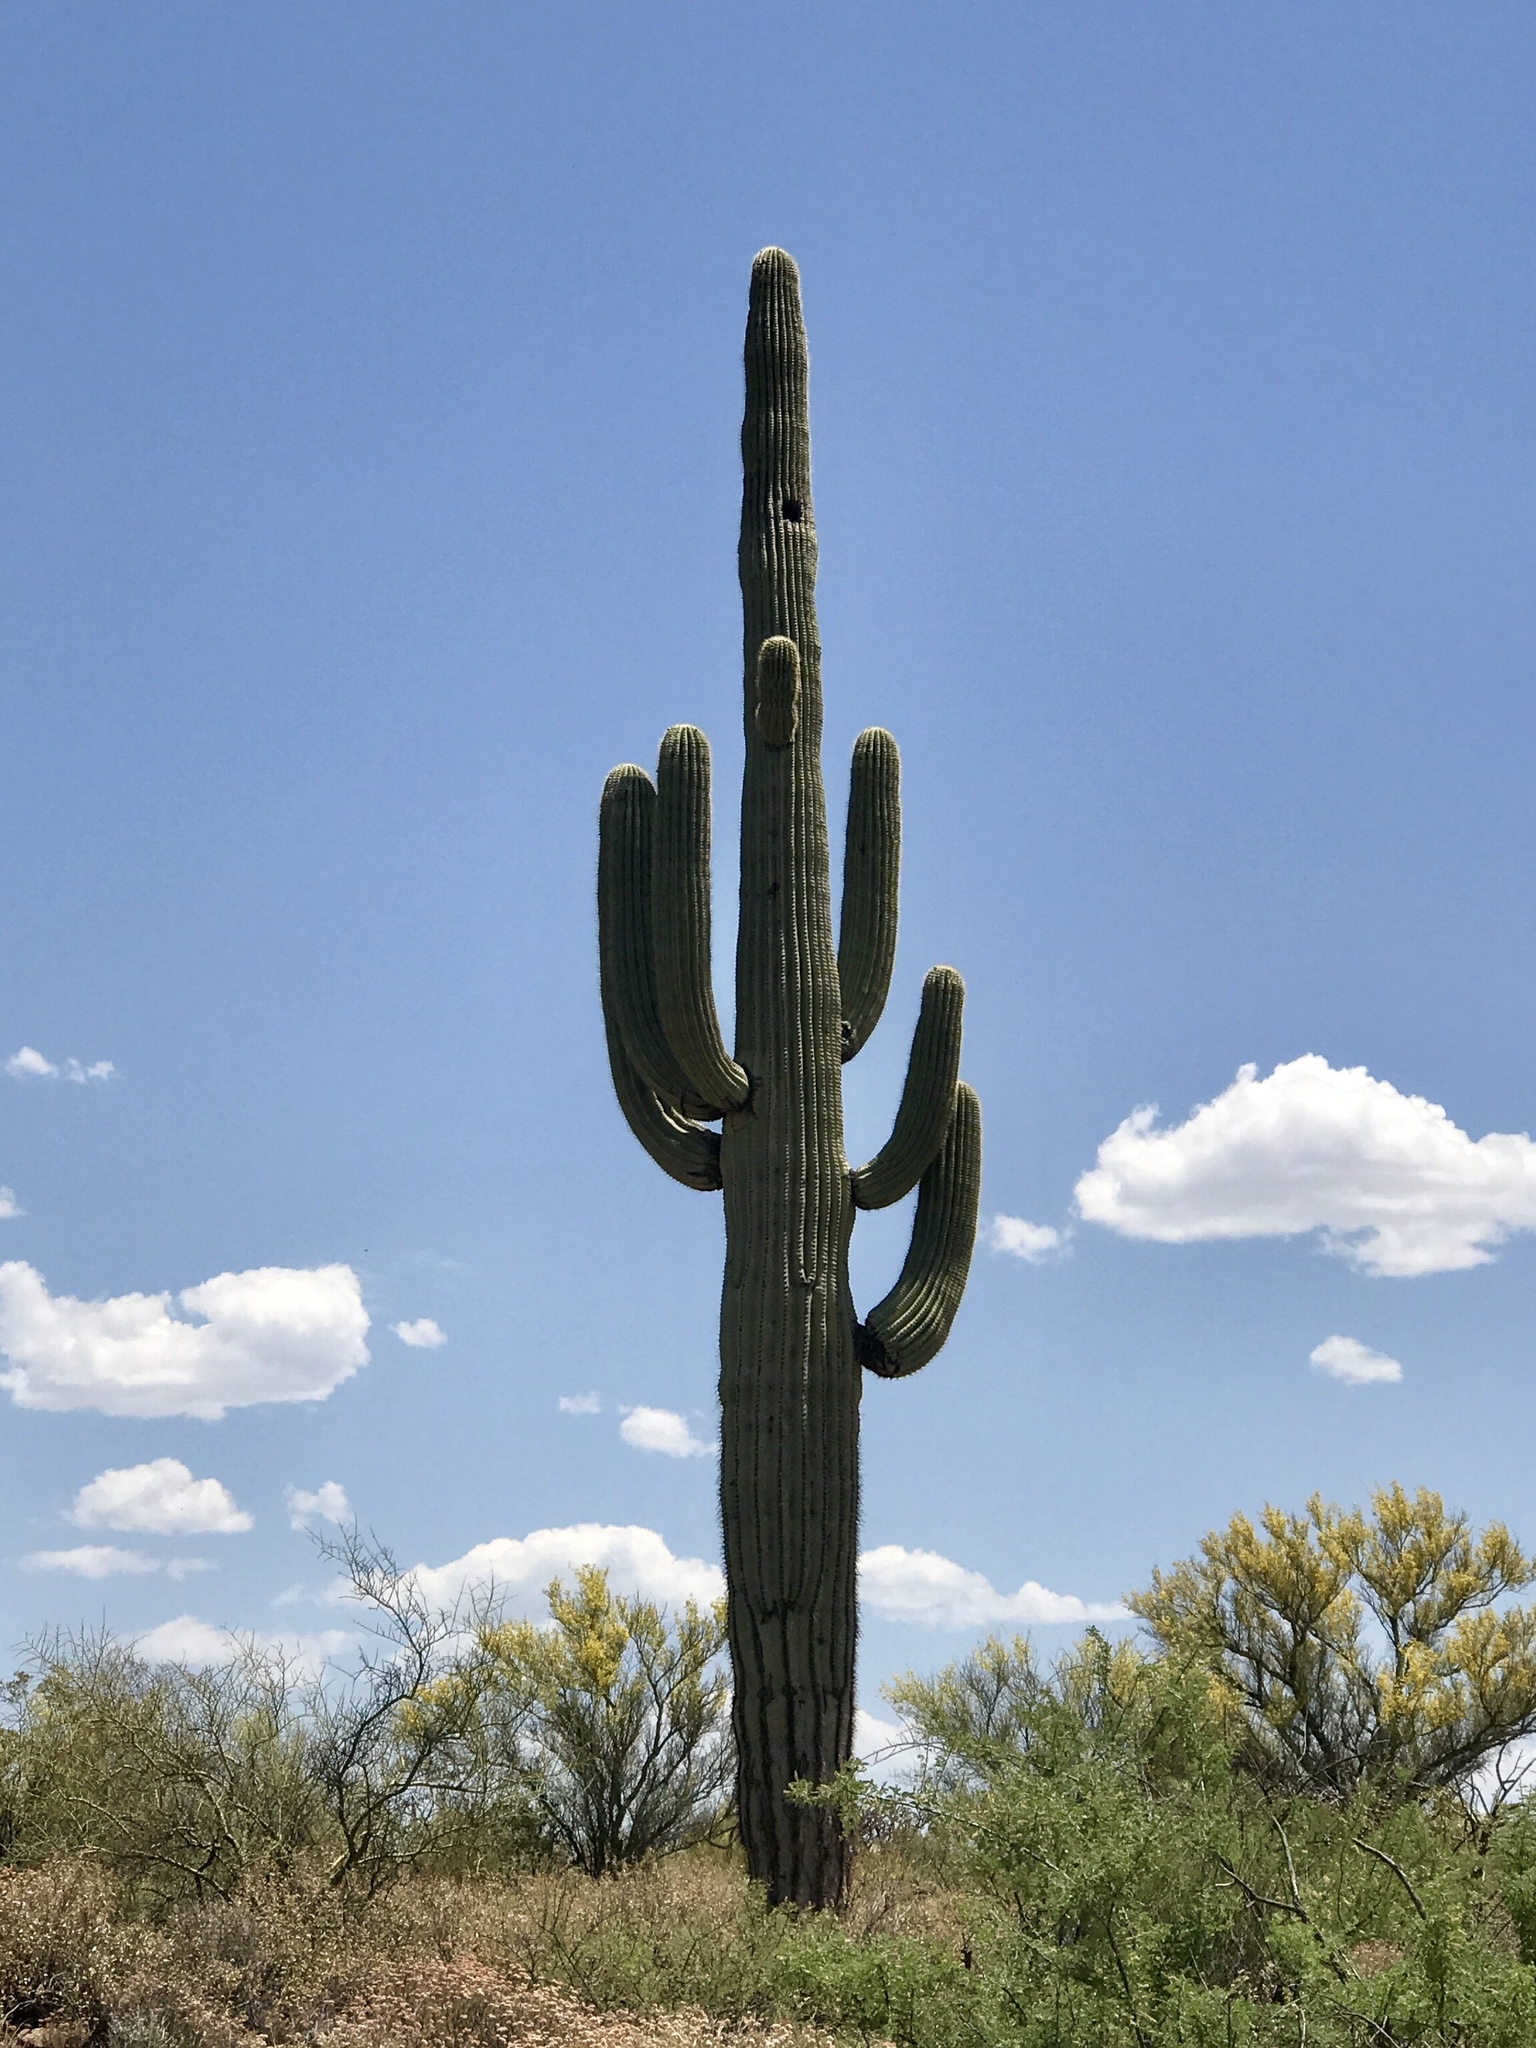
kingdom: Plantae
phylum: Tracheophyta
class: Magnoliopsida
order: Caryophyllales
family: Cactaceae
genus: Carnegiea
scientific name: Carnegiea gigantea
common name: Saguaro
